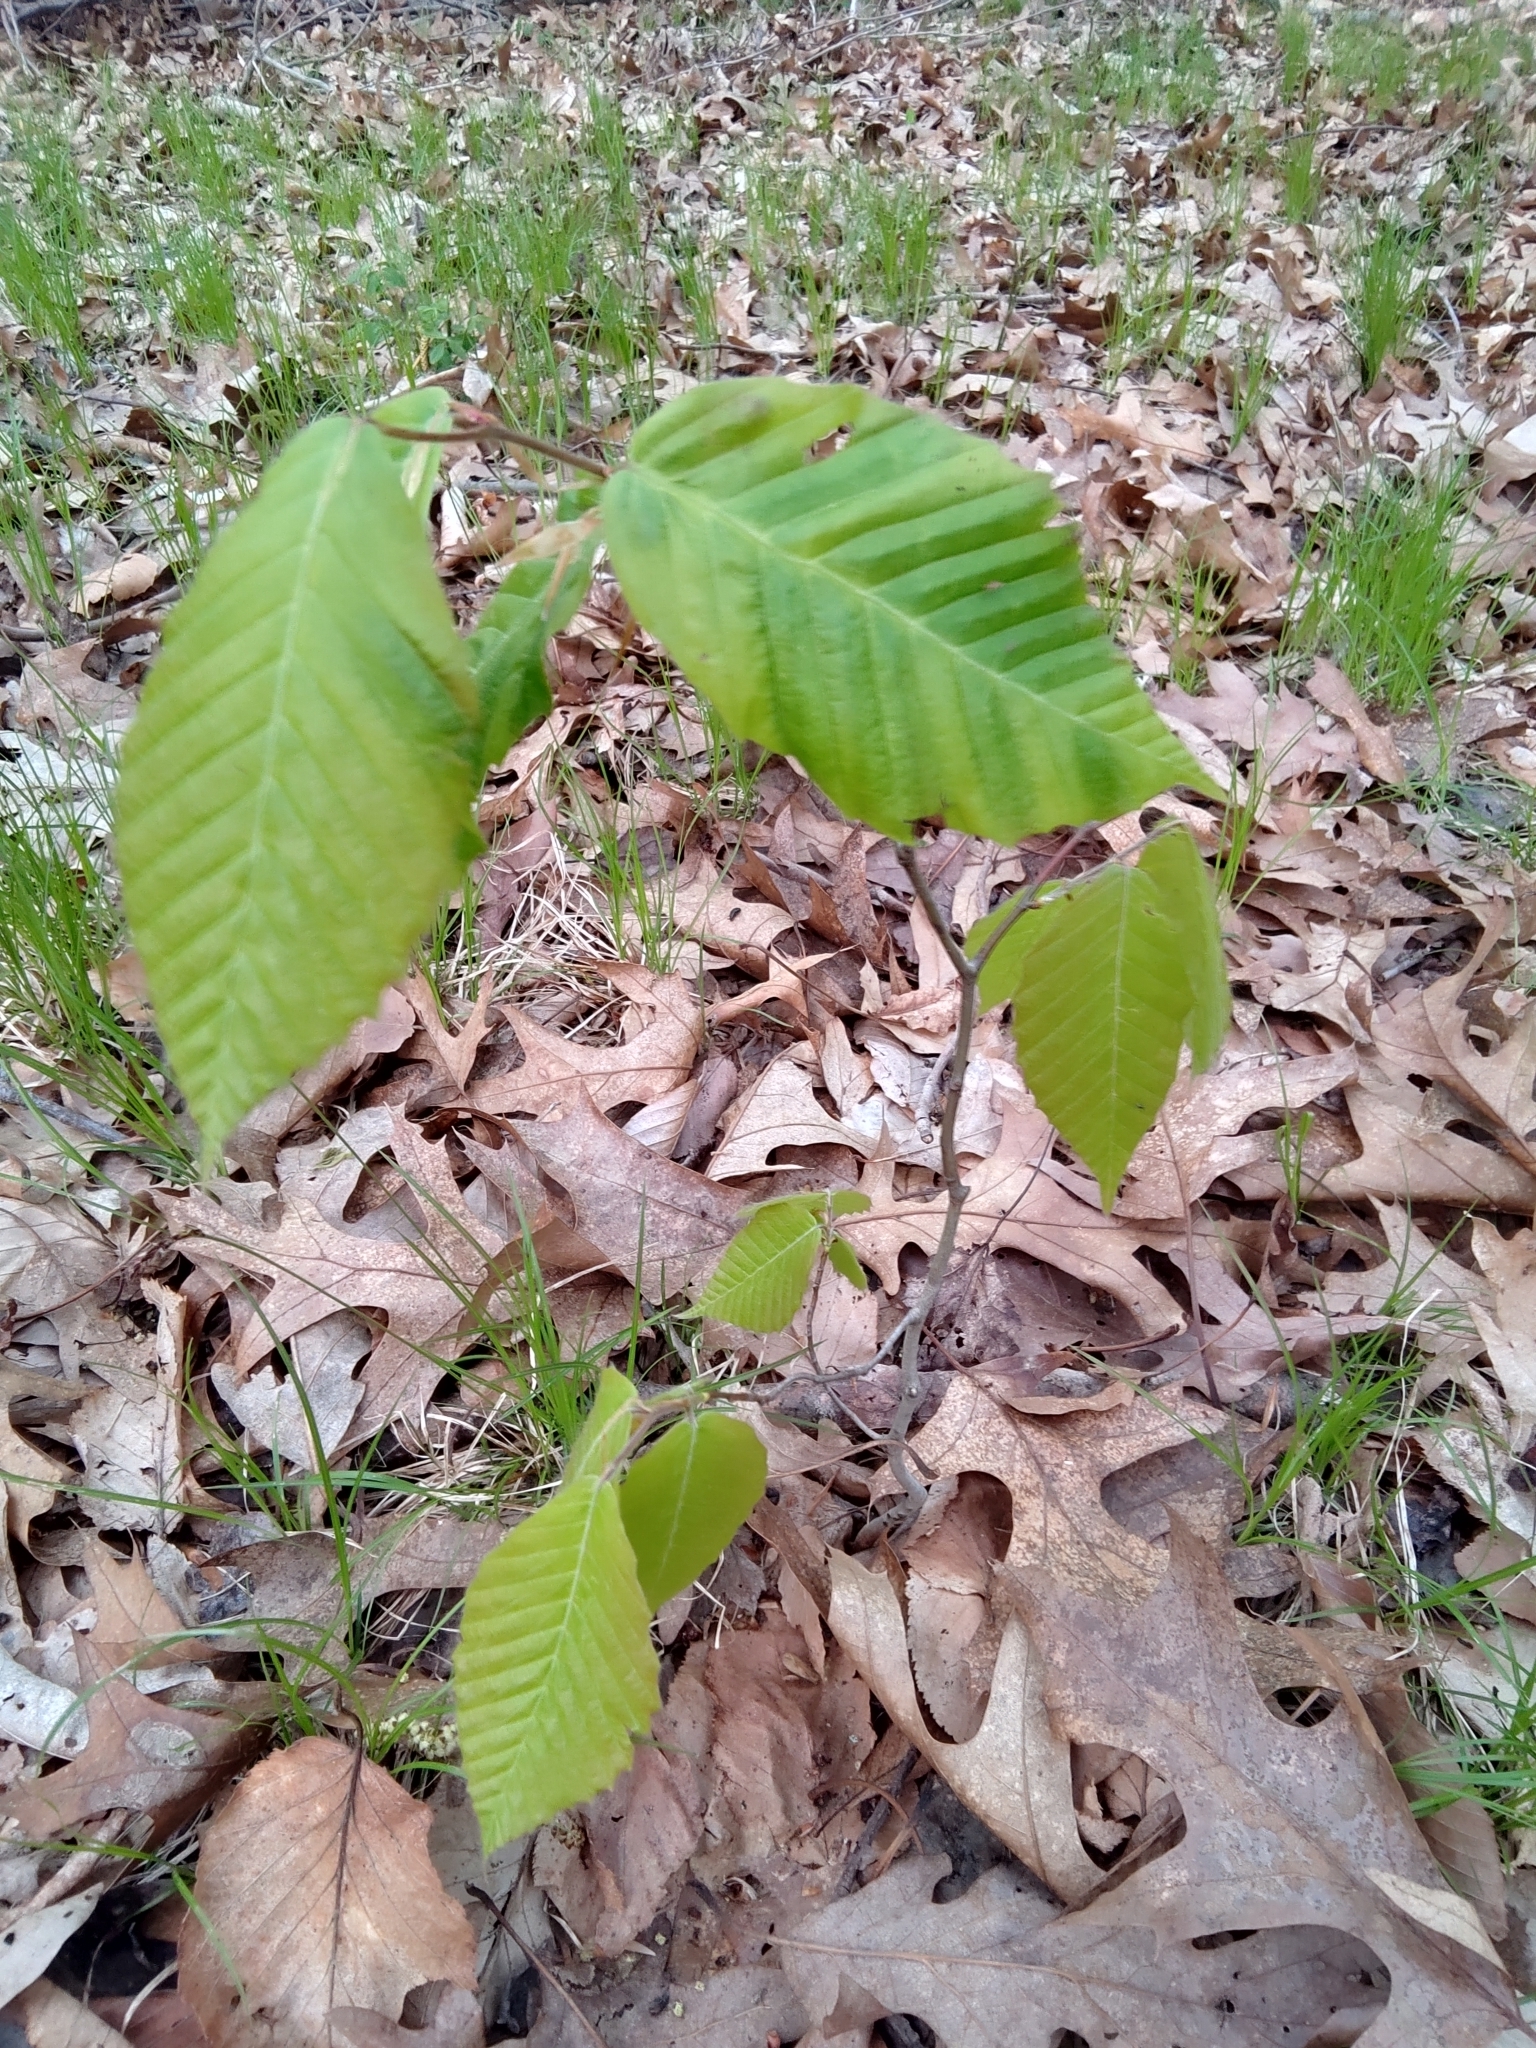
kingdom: Animalia
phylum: Nematoda
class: Chromadorea
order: Rhabditida
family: Anguinidae
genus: Litylenchus
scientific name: Litylenchus crenatae
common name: Beech leaf disease
